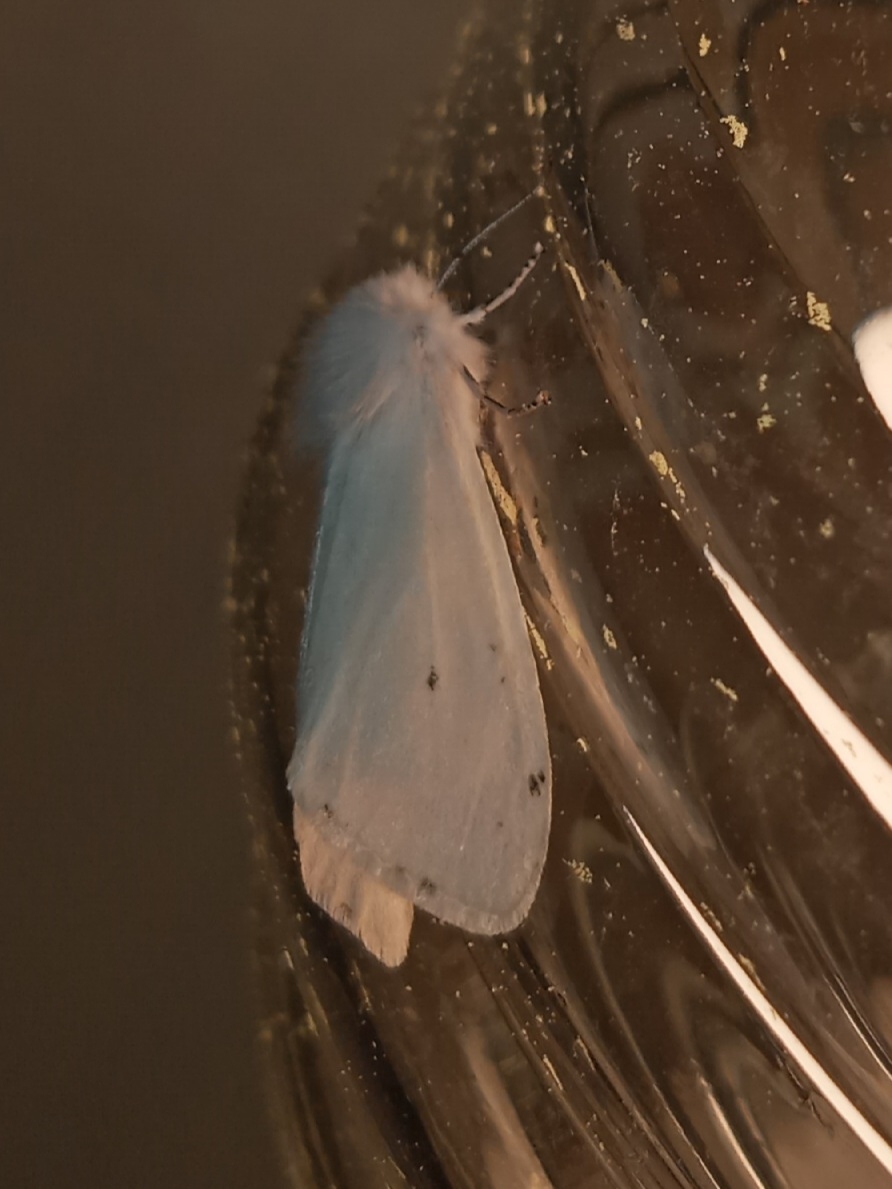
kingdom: Animalia
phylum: Arthropoda
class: Insecta
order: Lepidoptera
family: Erebidae
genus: Hyphantria
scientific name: Hyphantria cunea
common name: American white moth
